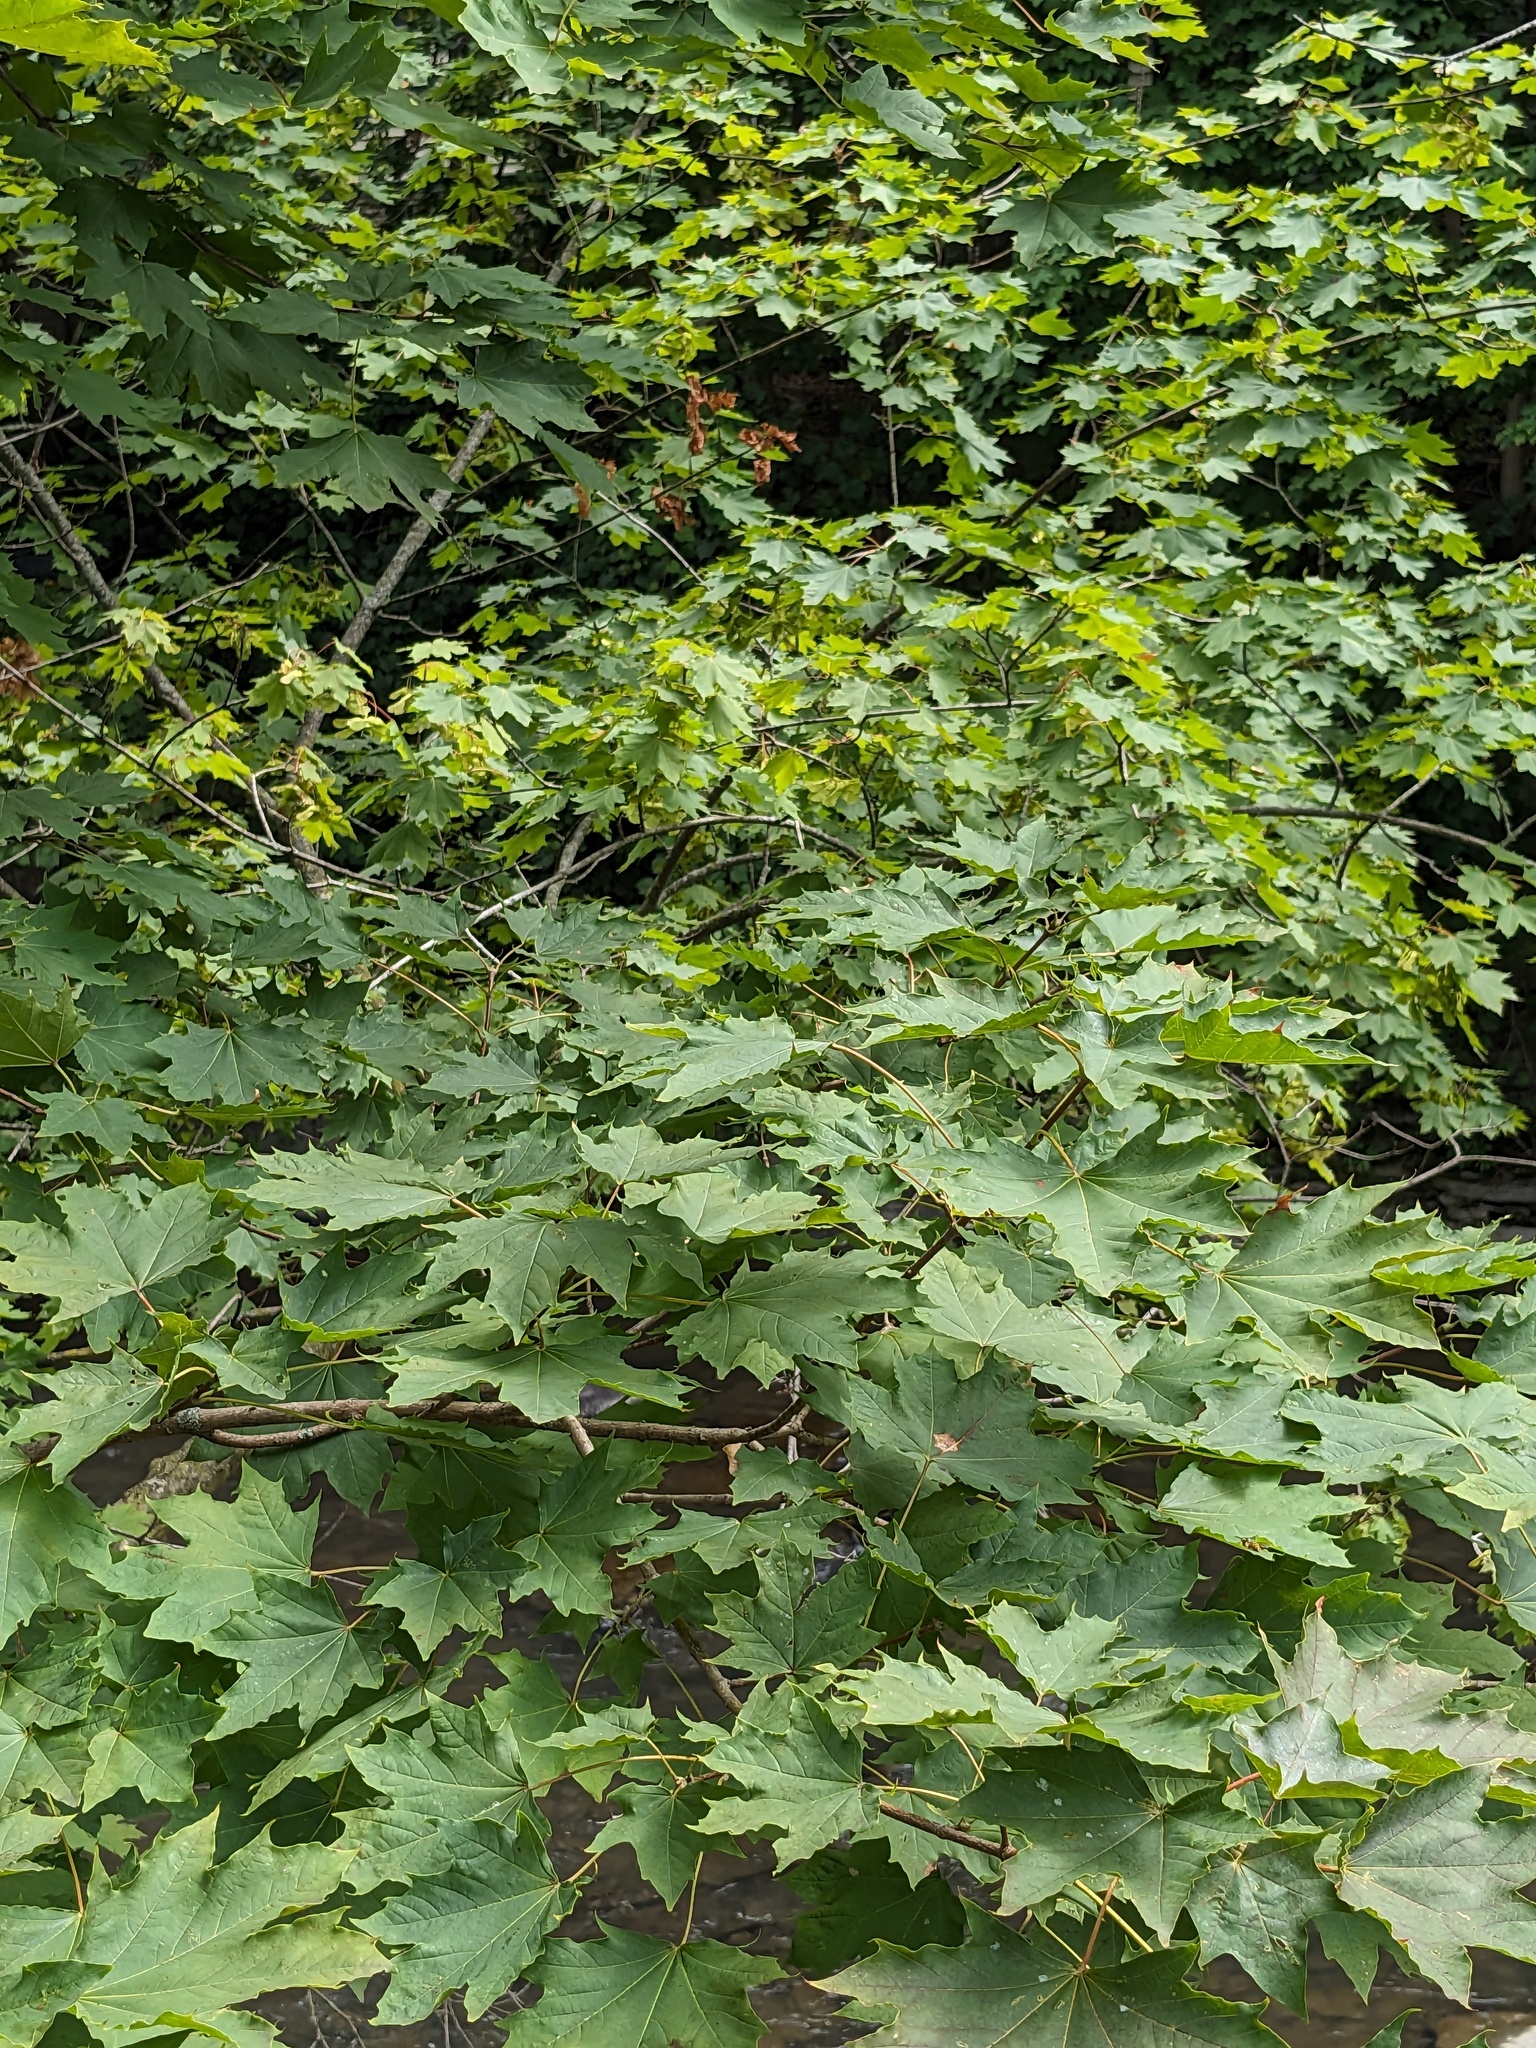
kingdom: Plantae
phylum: Tracheophyta
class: Magnoliopsida
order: Sapindales
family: Sapindaceae
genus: Acer
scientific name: Acer platanoides
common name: Norway maple
